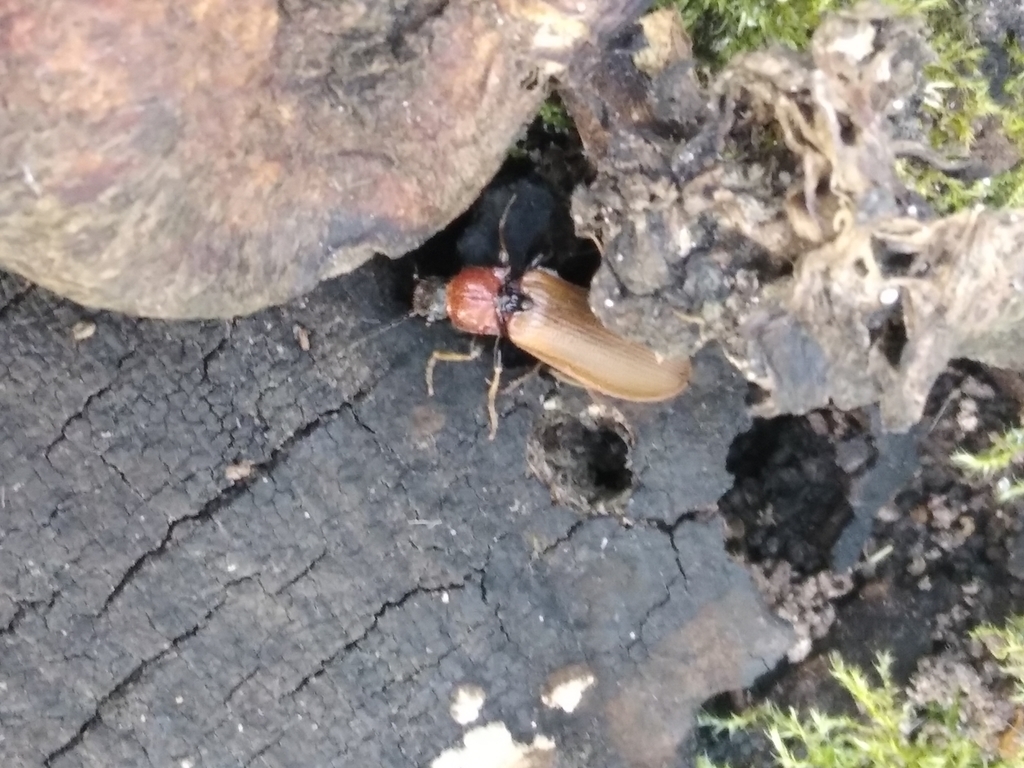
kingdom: Animalia
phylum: Arthropoda
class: Insecta
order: Coleoptera
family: Elateridae
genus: Denticollis
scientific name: Denticollis linearis
